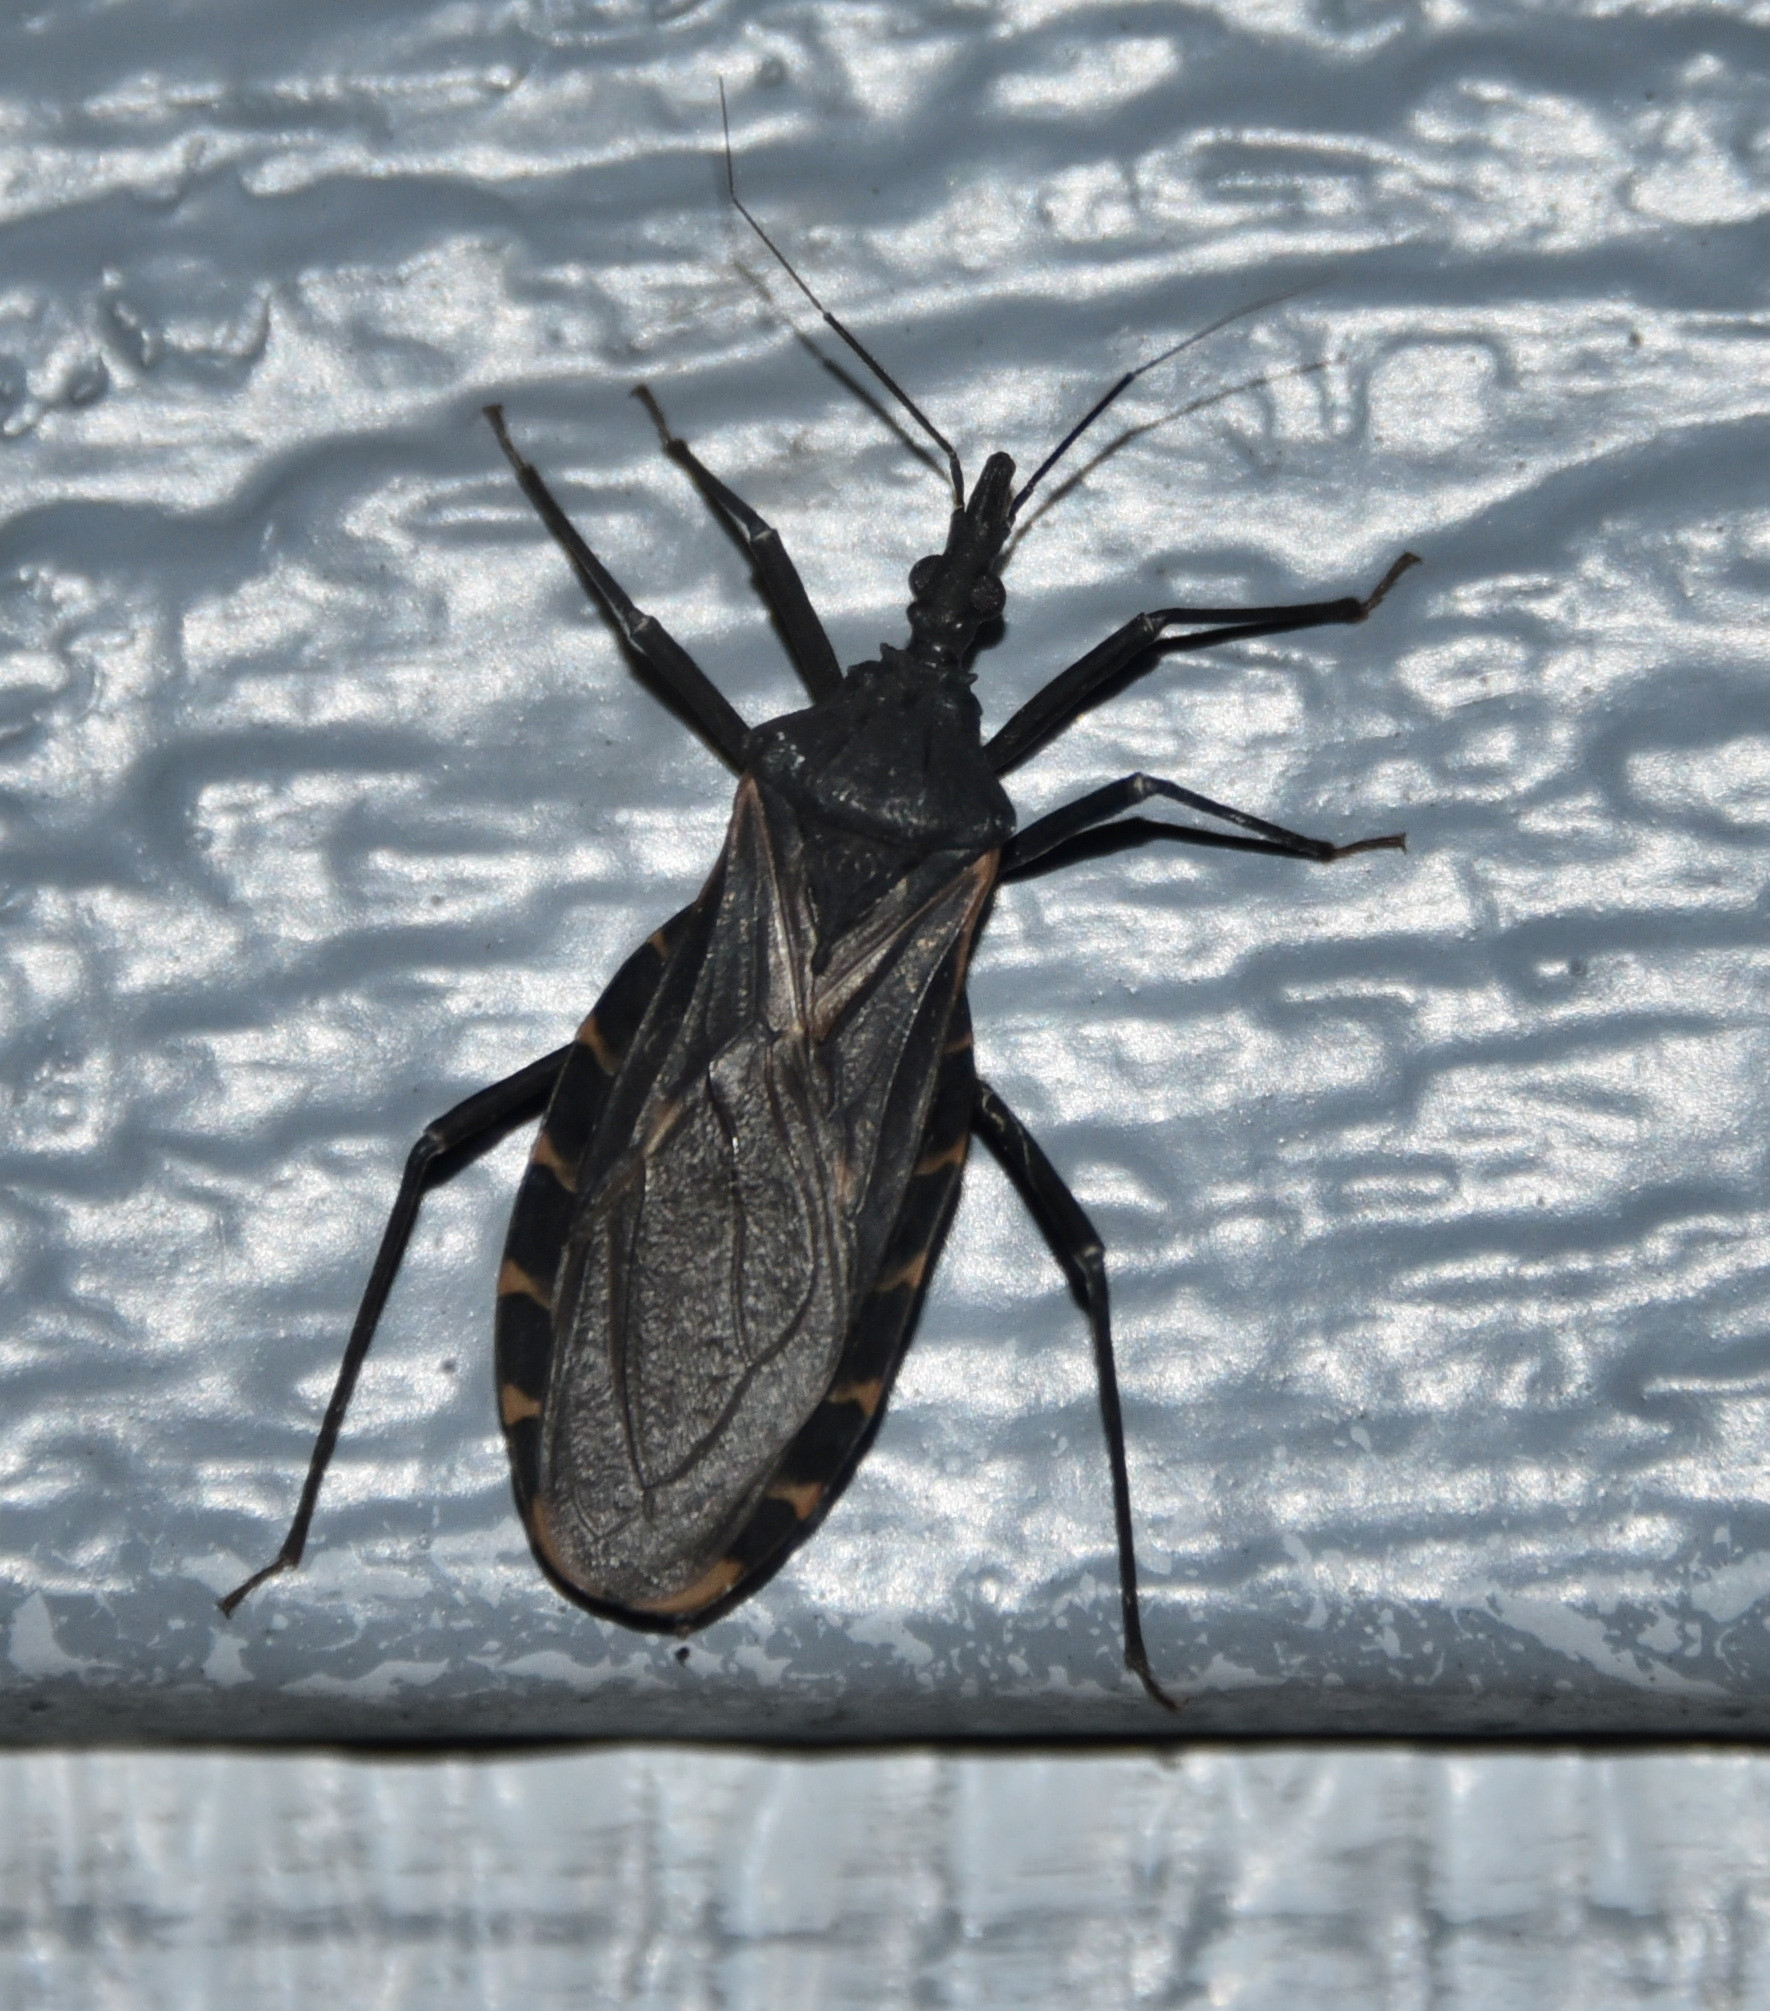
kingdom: Animalia
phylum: Arthropoda
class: Insecta
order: Hemiptera
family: Reduviidae
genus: Triatoma
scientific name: Triatoma gerstaeckeri
